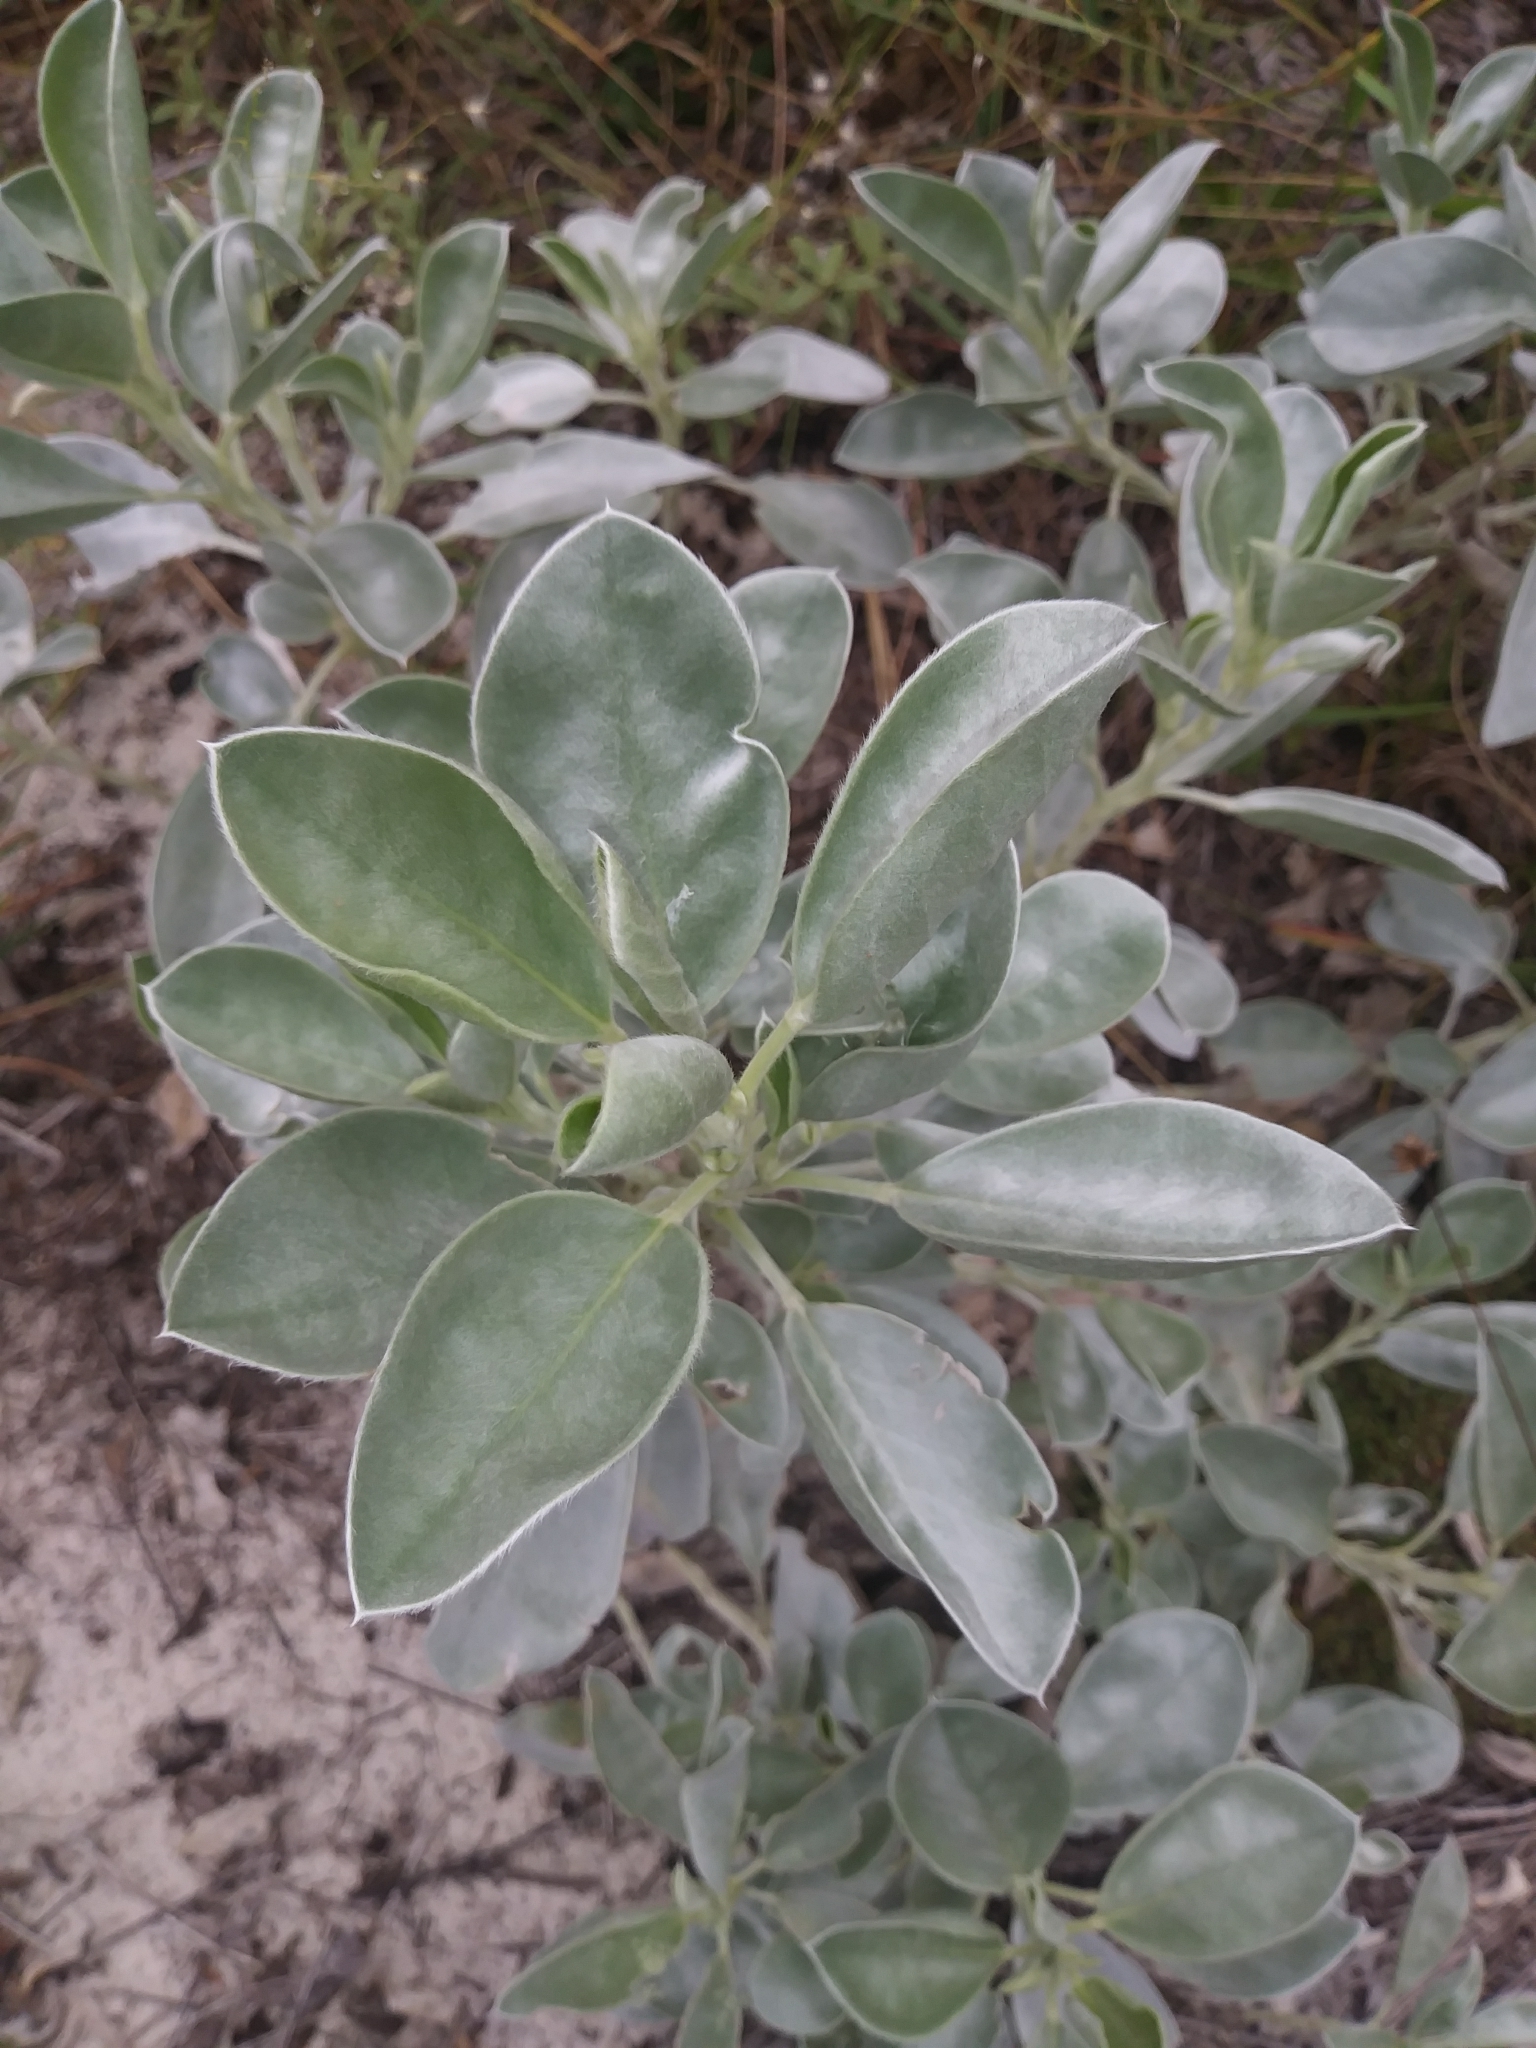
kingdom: Plantae
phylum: Tracheophyta
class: Magnoliopsida
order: Fabales
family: Fabaceae
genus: Lupinus
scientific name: Lupinus cumulicola
